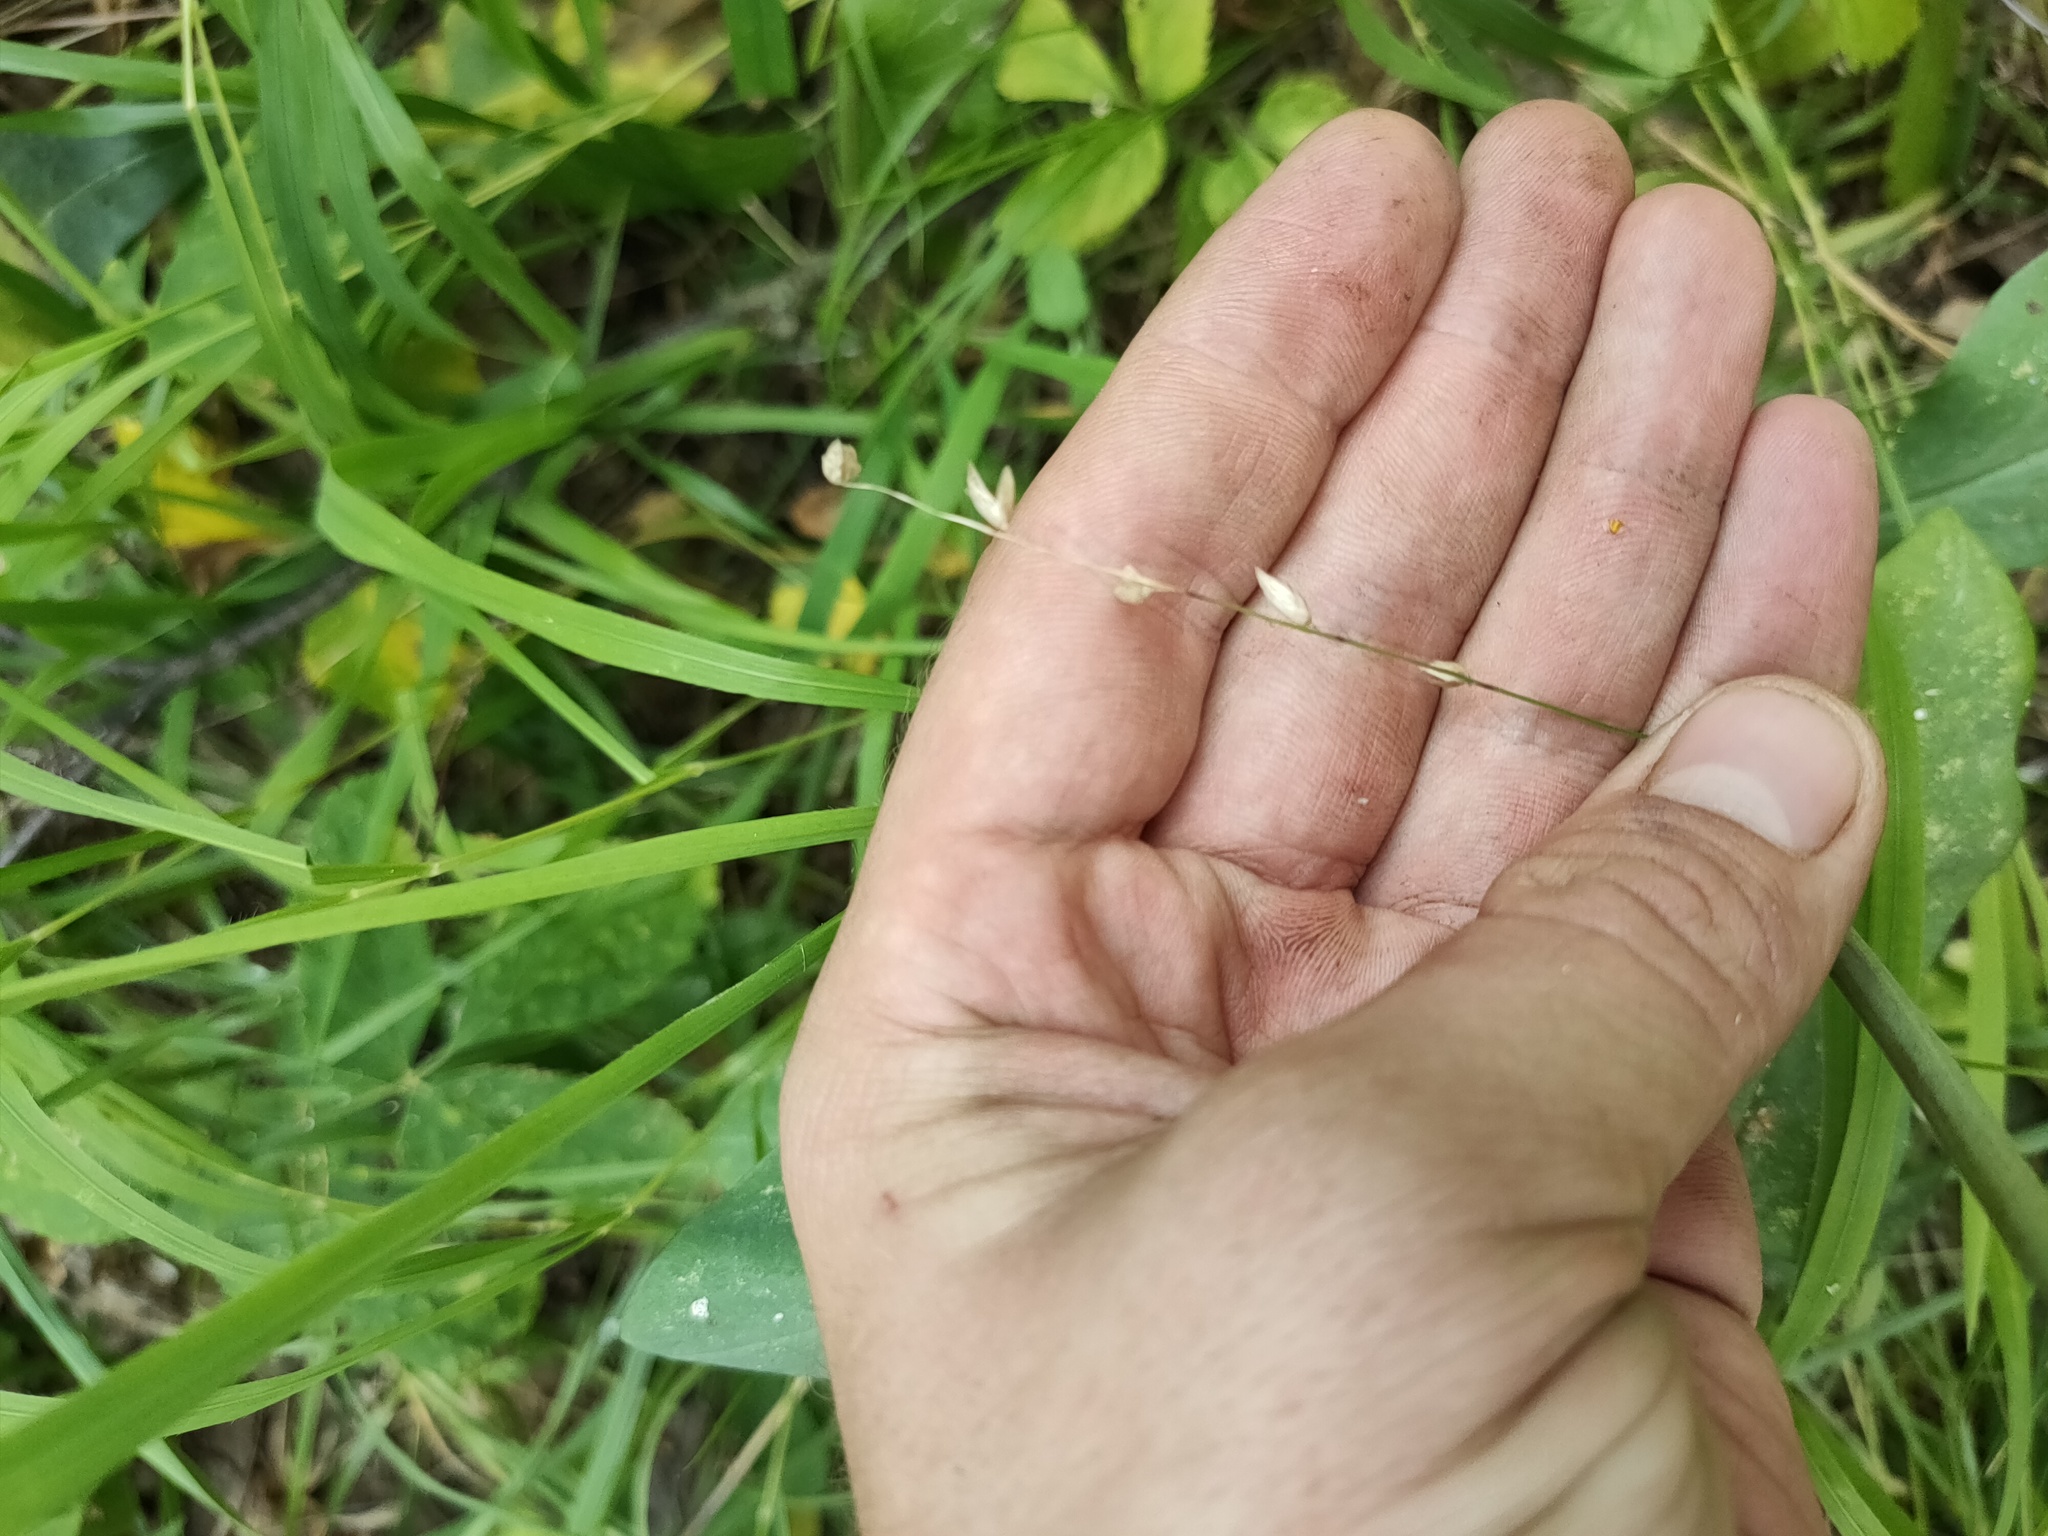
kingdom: Plantae
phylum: Tracheophyta
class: Liliopsida
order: Poales
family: Poaceae
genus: Melica
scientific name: Melica nutans
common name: Mountain melick
